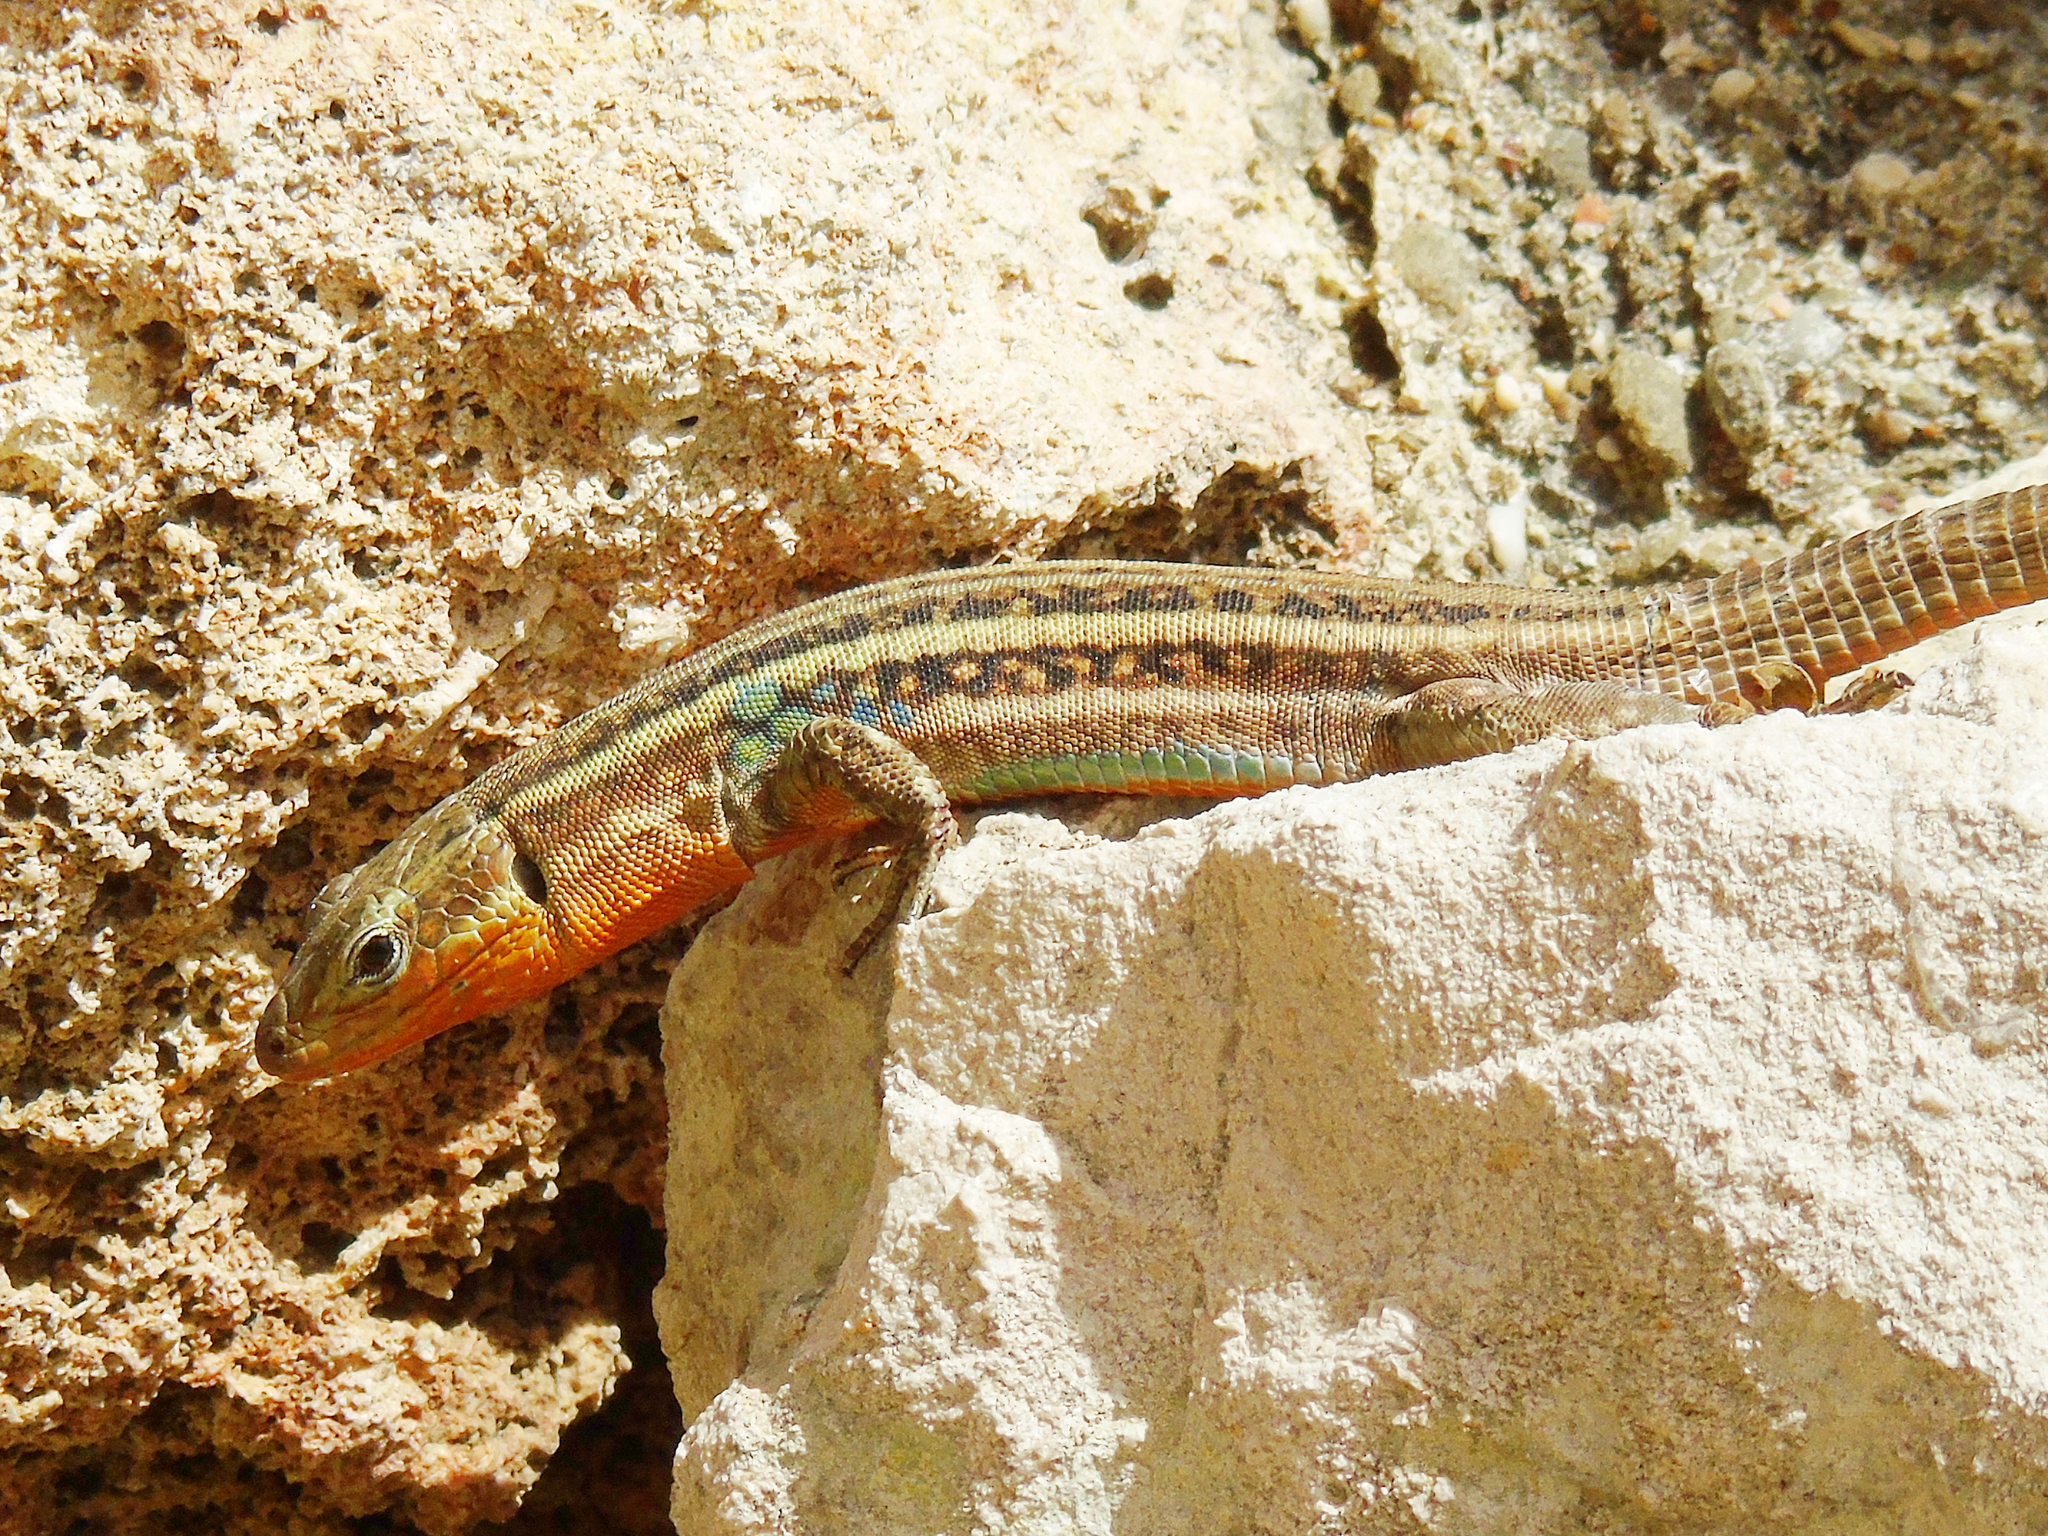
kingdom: Animalia
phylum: Chordata
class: Squamata
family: Lacertidae
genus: Podarcis
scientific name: Podarcis peloponnesiacus
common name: Peloponnese wall lizard
